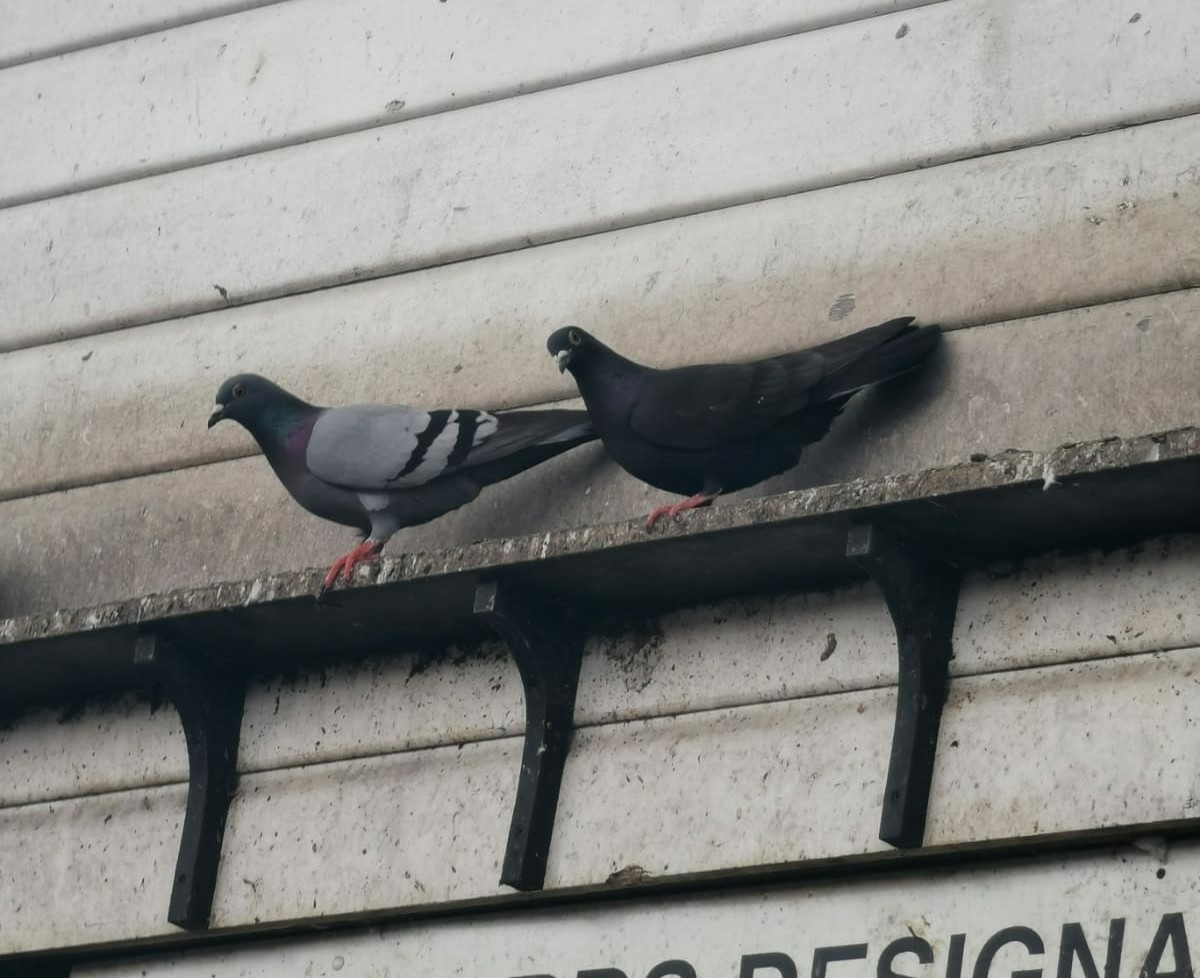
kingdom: Animalia
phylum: Chordata
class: Aves
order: Columbiformes
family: Columbidae
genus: Columba
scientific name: Columba livia
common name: Rock pigeon
